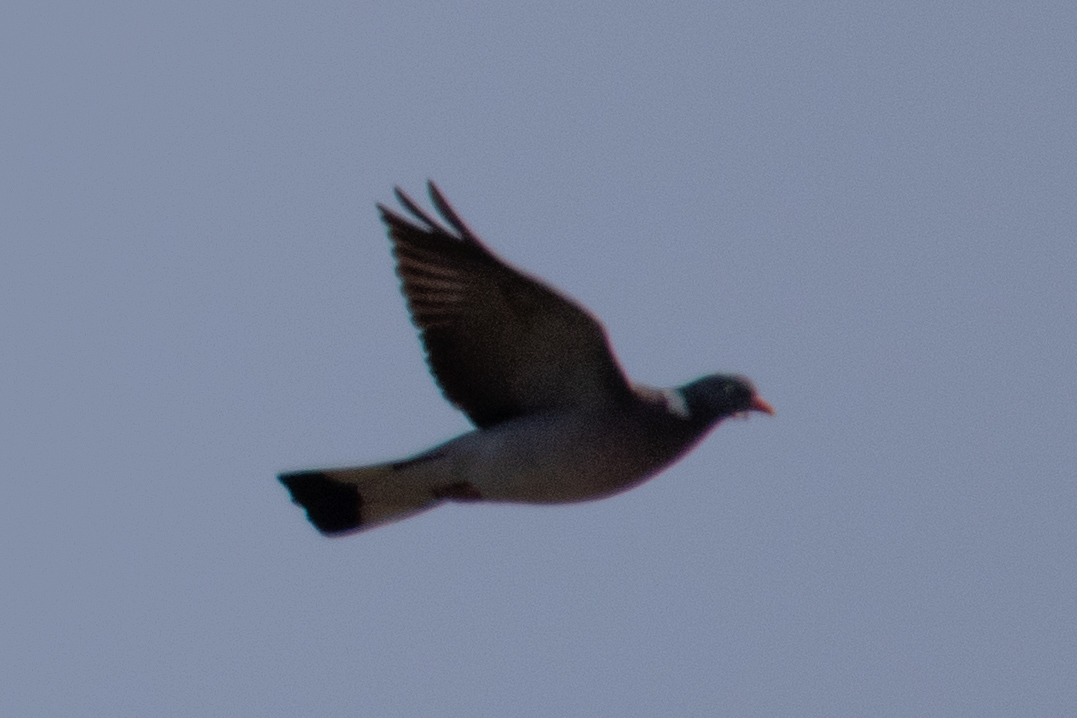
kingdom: Animalia
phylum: Chordata
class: Aves
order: Columbiformes
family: Columbidae
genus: Columba
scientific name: Columba palumbus
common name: Common wood pigeon
